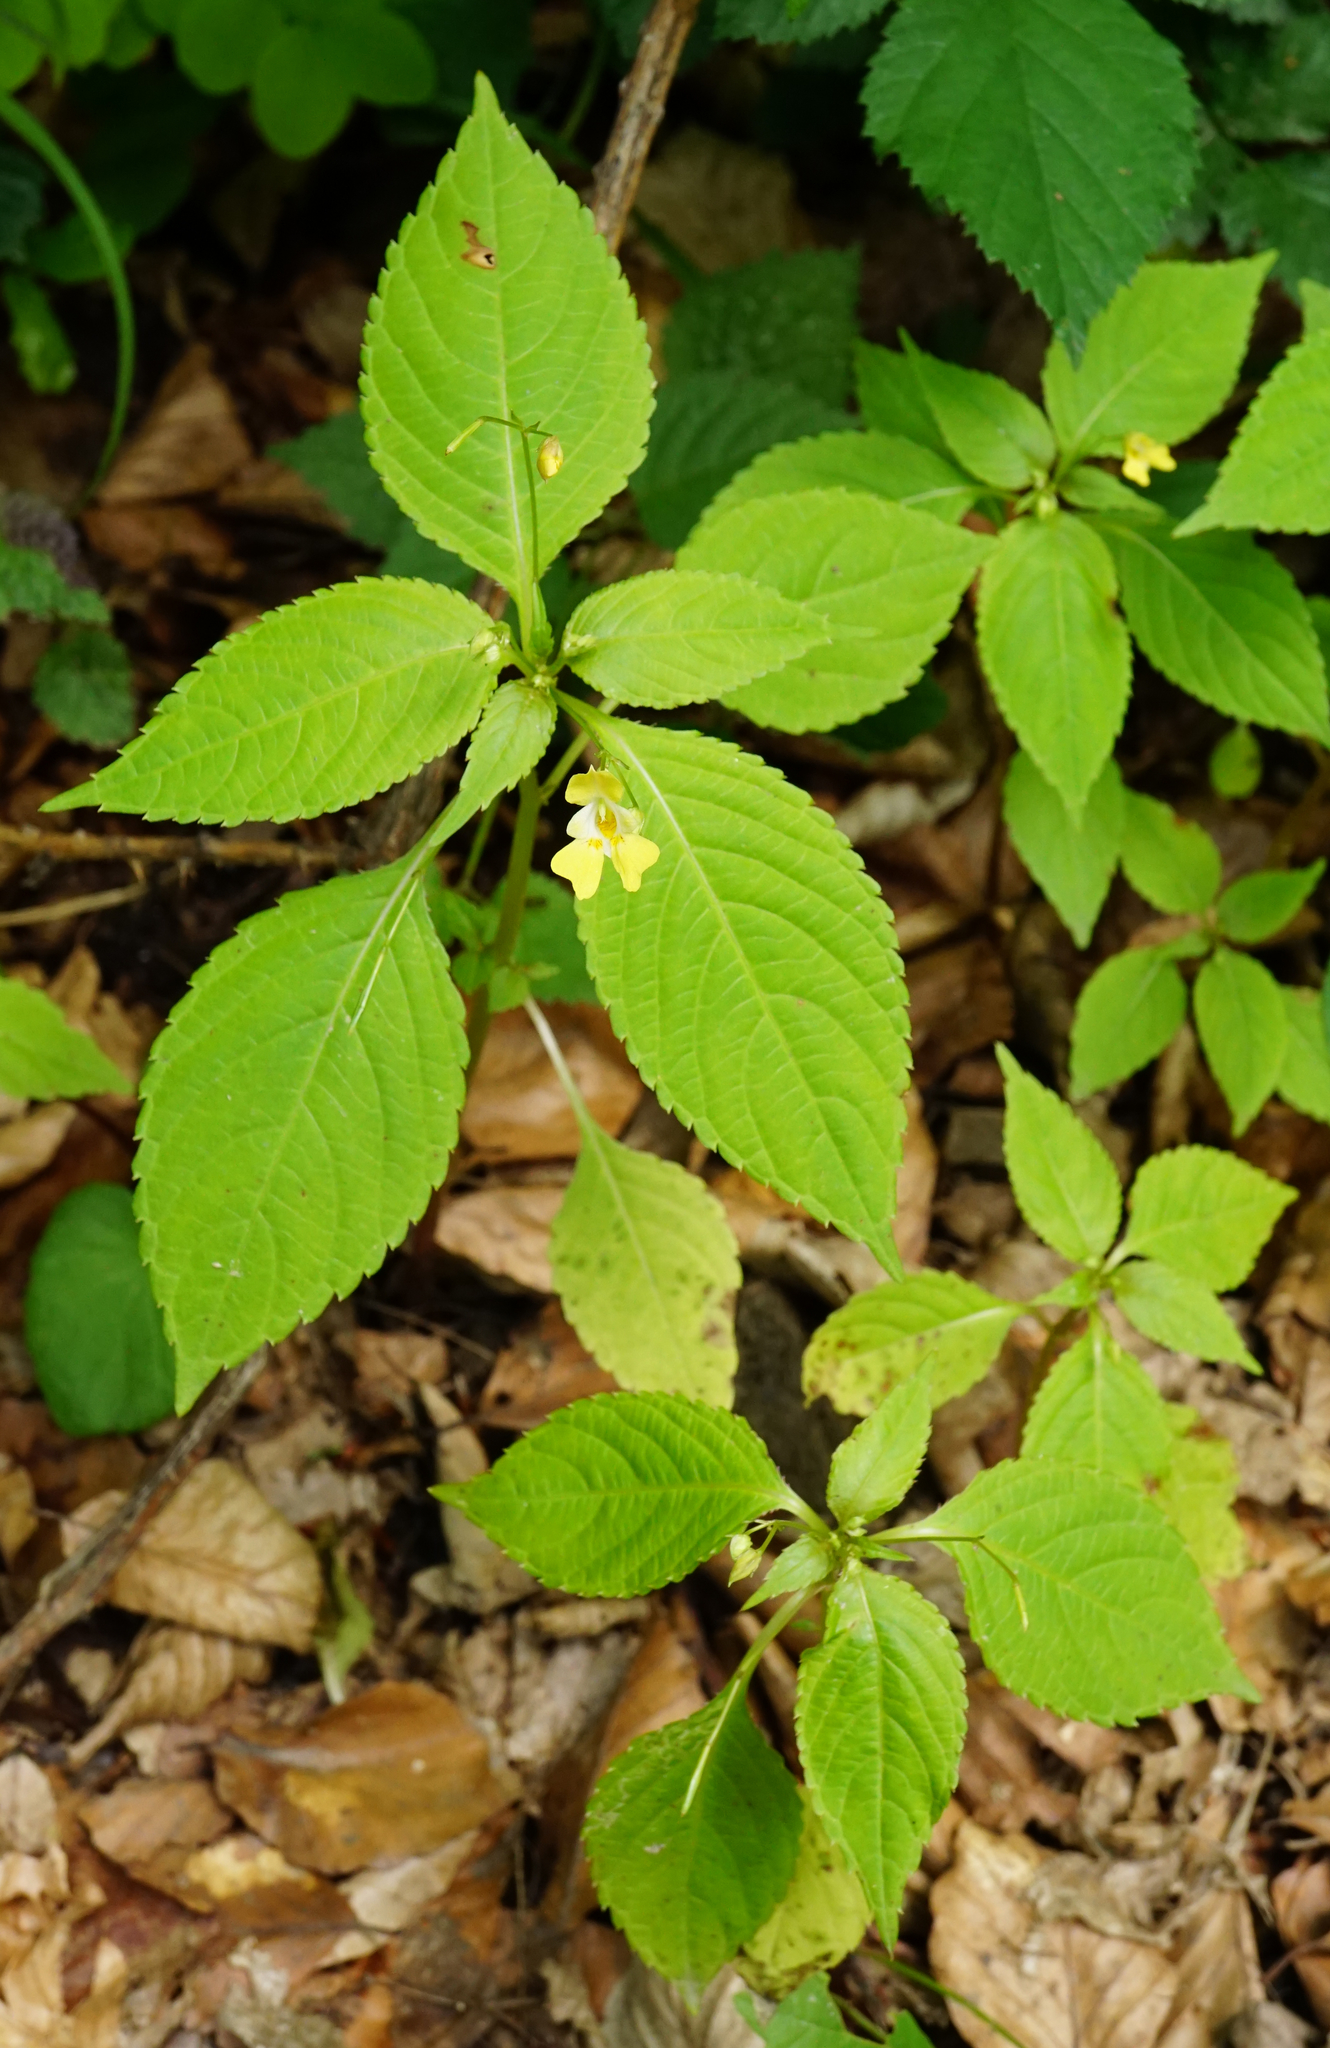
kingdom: Plantae
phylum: Tracheophyta
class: Magnoliopsida
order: Ericales
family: Balsaminaceae
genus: Impatiens
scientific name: Impatiens parviflora
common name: Small balsam
